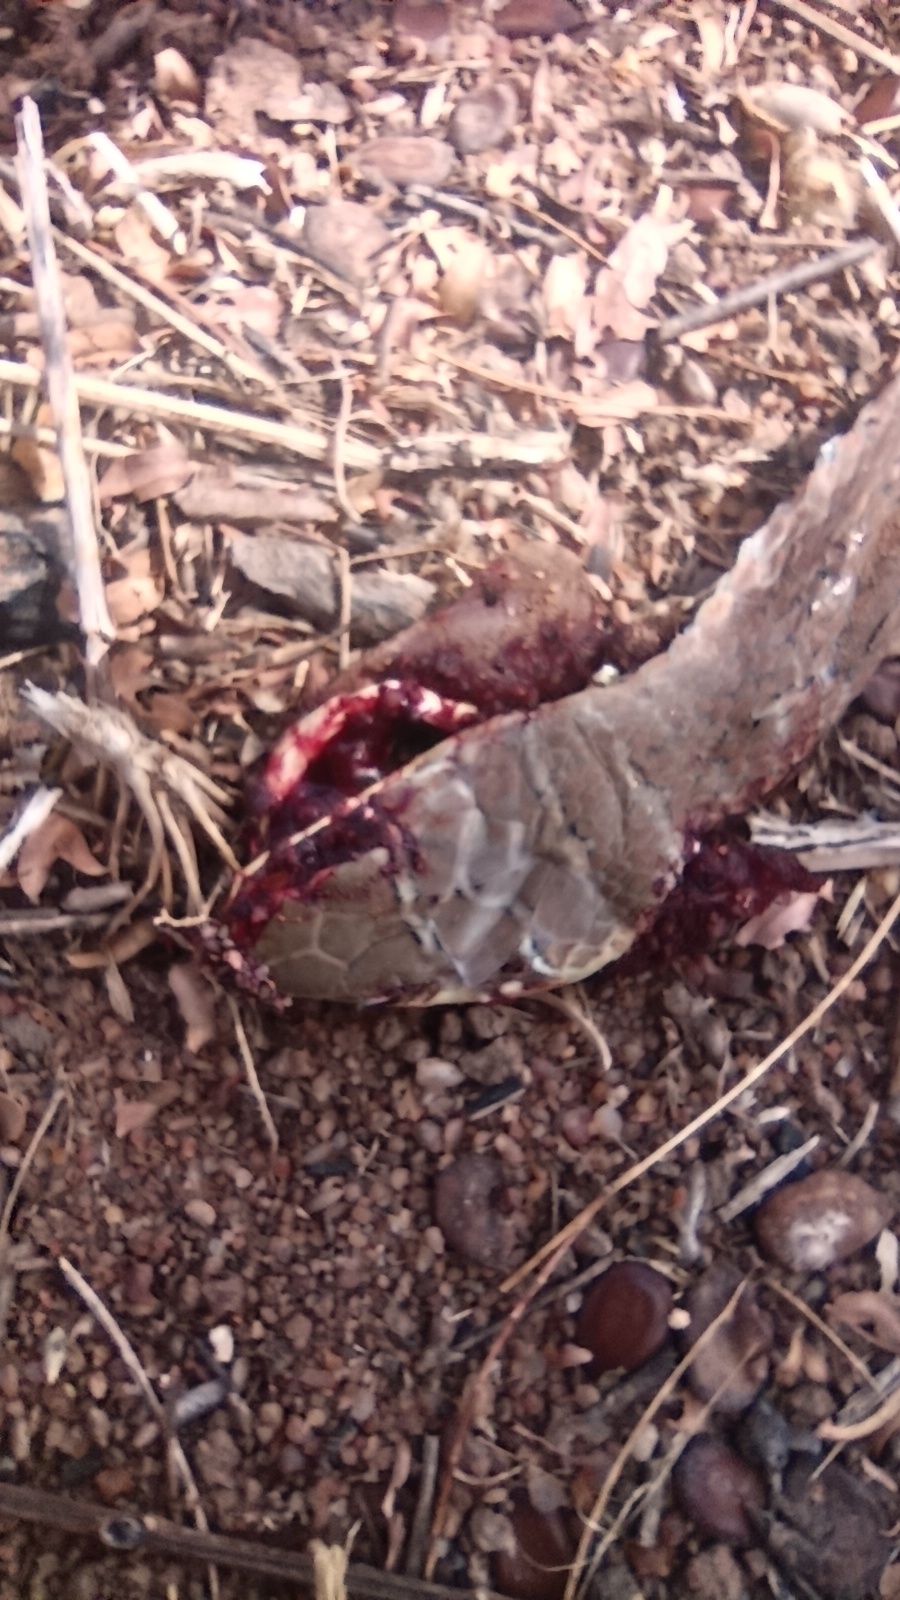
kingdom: Animalia
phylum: Chordata
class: Squamata
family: Psammophiidae
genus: Psammophis
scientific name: Psammophis sudanensis
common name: Northern stripe-bellied sand snake
